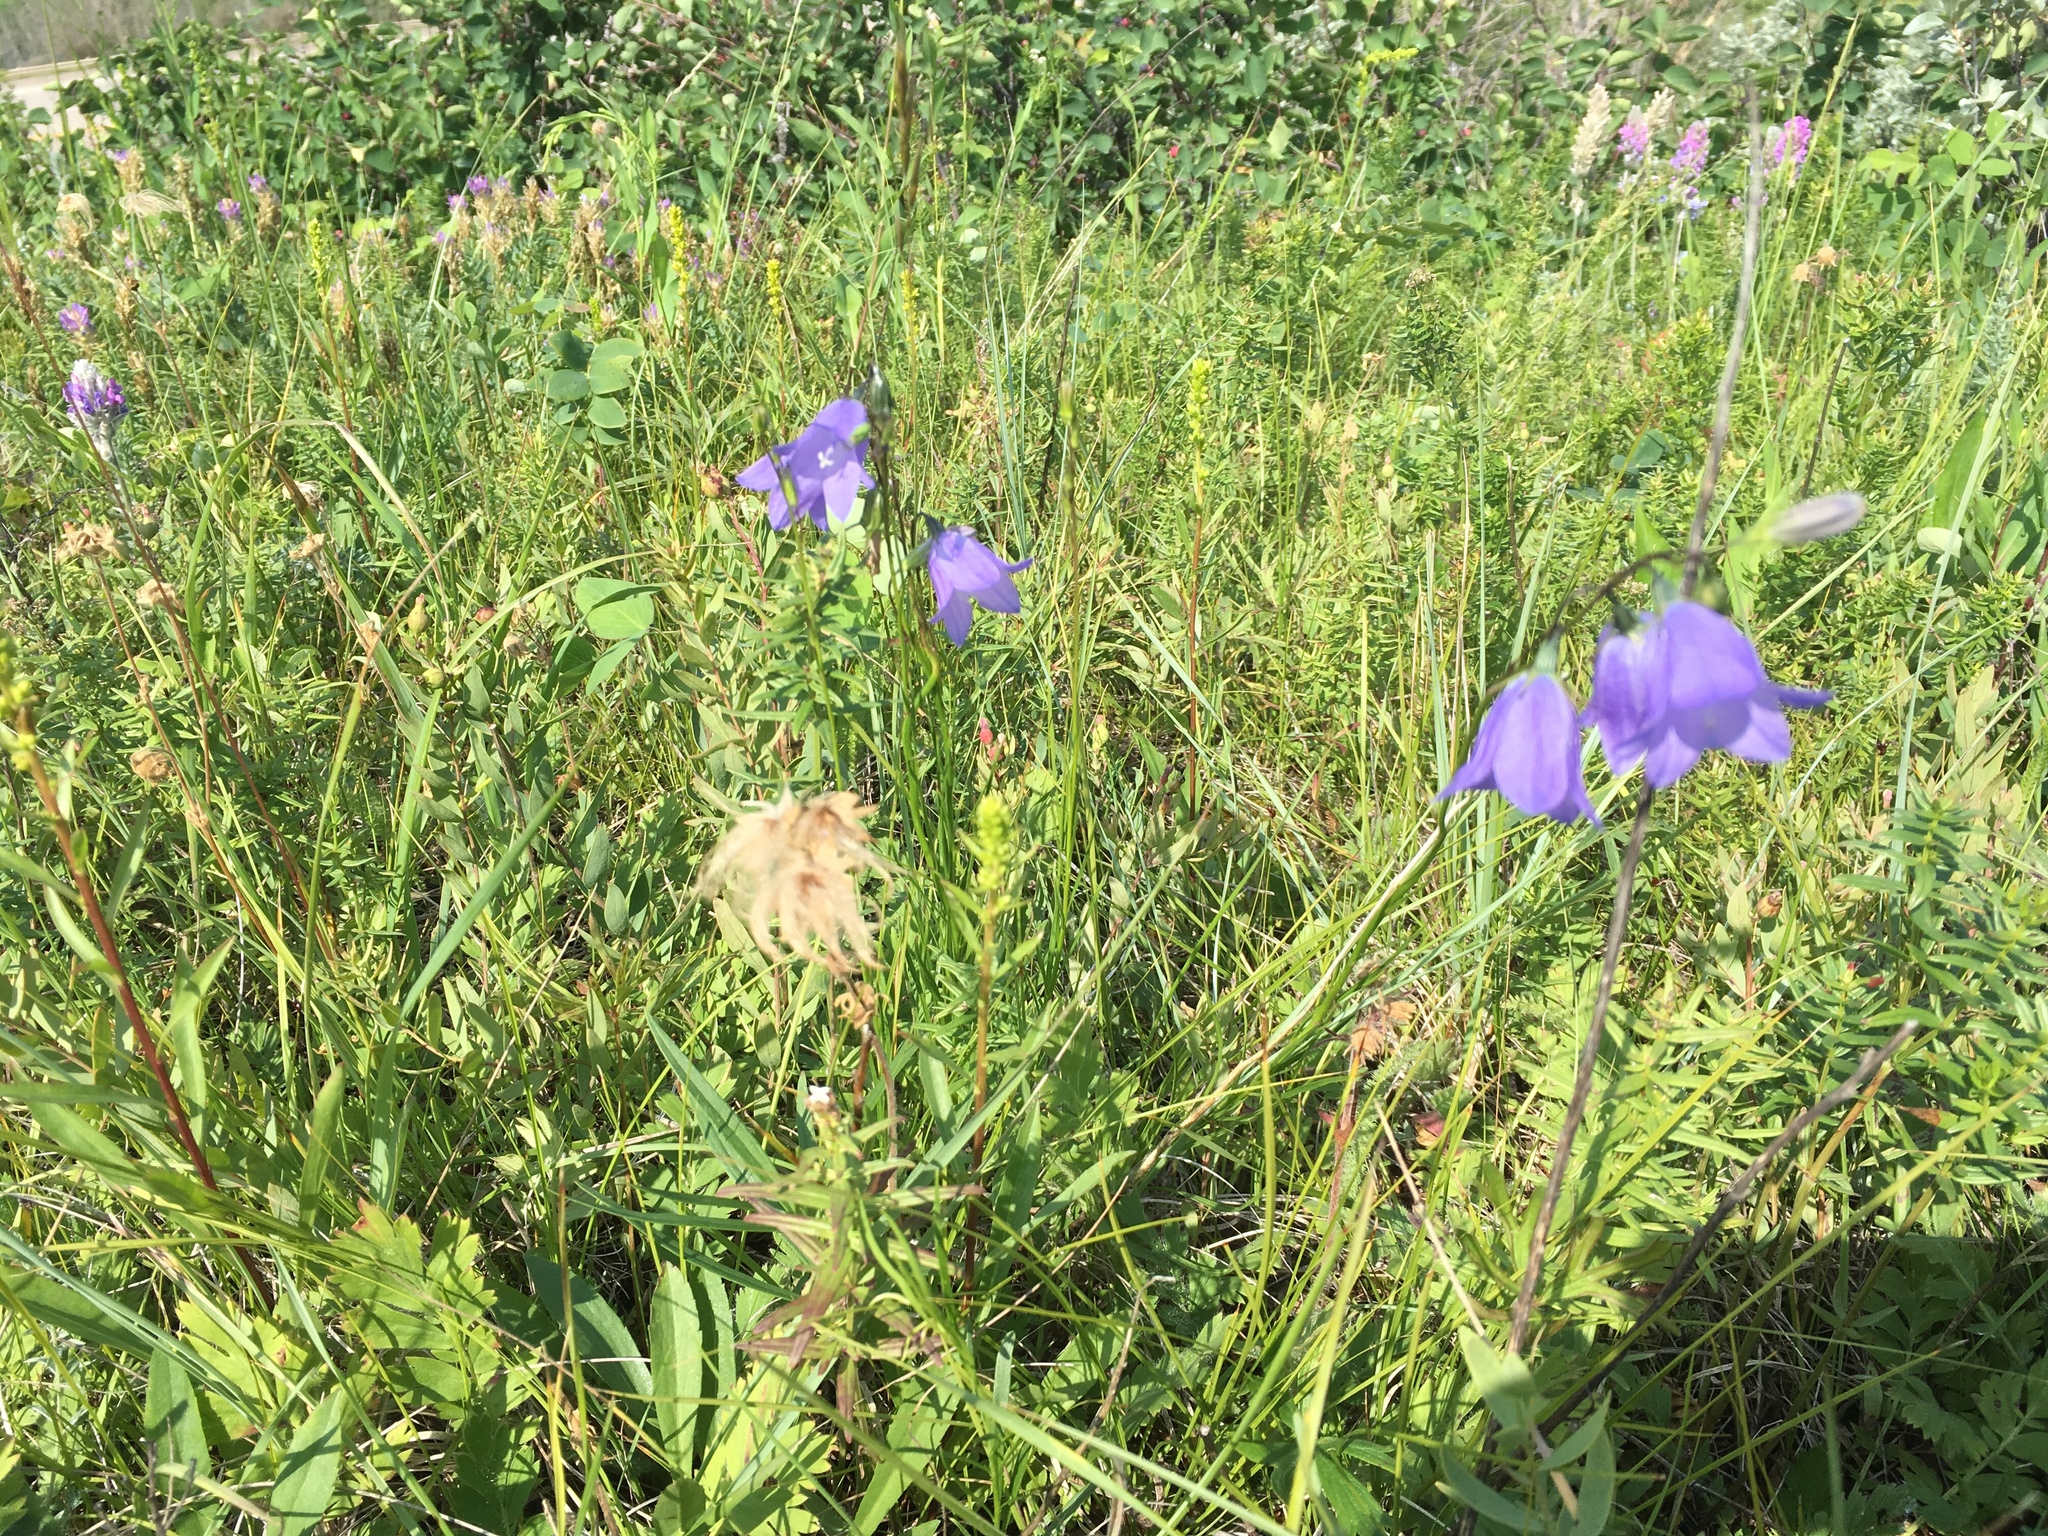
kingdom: Plantae
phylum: Tracheophyta
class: Magnoliopsida
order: Asterales
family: Campanulaceae
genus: Campanula
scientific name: Campanula alaskana
